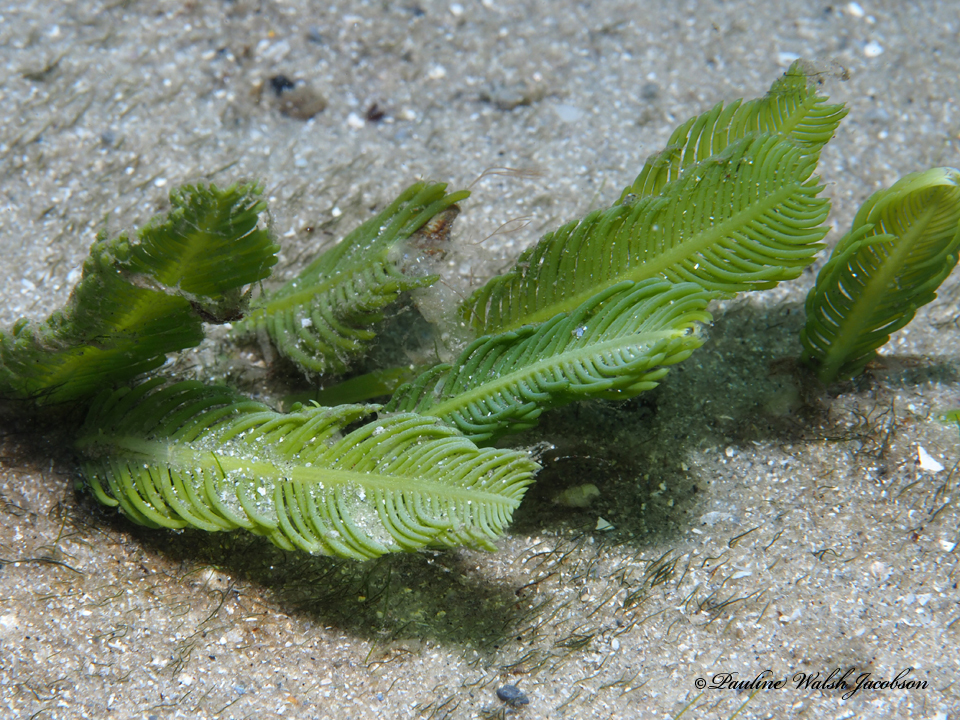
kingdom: Plantae
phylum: Chlorophyta
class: Ulvophyceae
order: Bryopsidales
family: Caulerpaceae
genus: Caulerpa
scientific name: Caulerpa sertularioides
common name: Green feather algae
